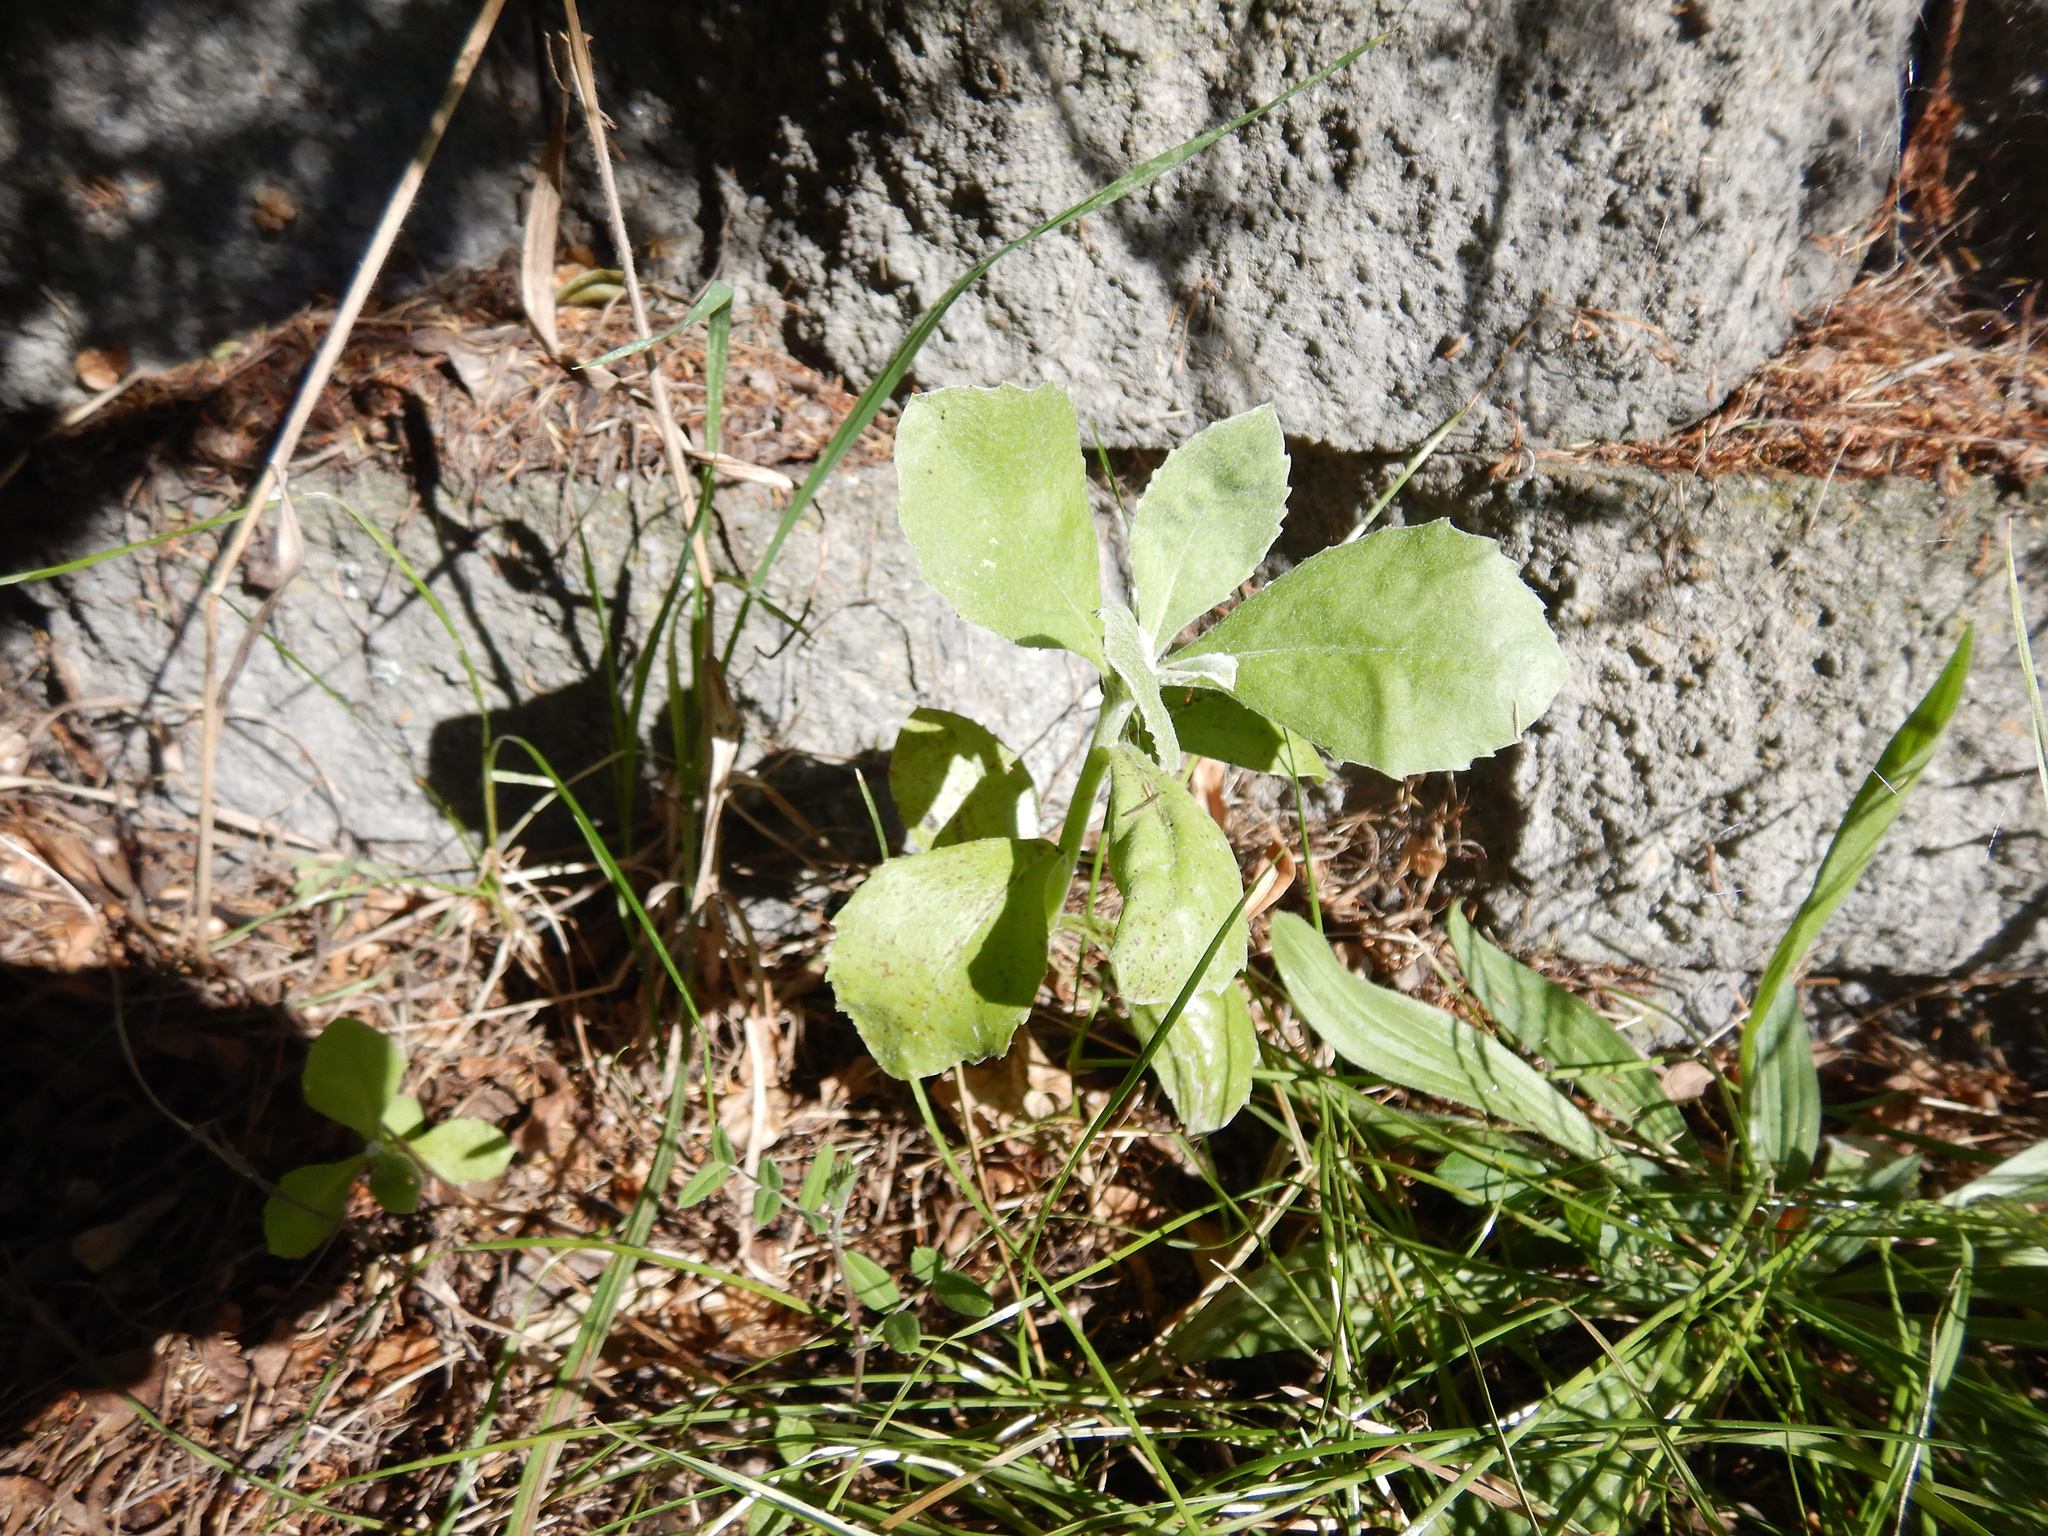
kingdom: Plantae
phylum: Tracheophyta
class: Magnoliopsida
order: Asterales
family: Asteraceae
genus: Osteospermum
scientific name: Osteospermum moniliferum
